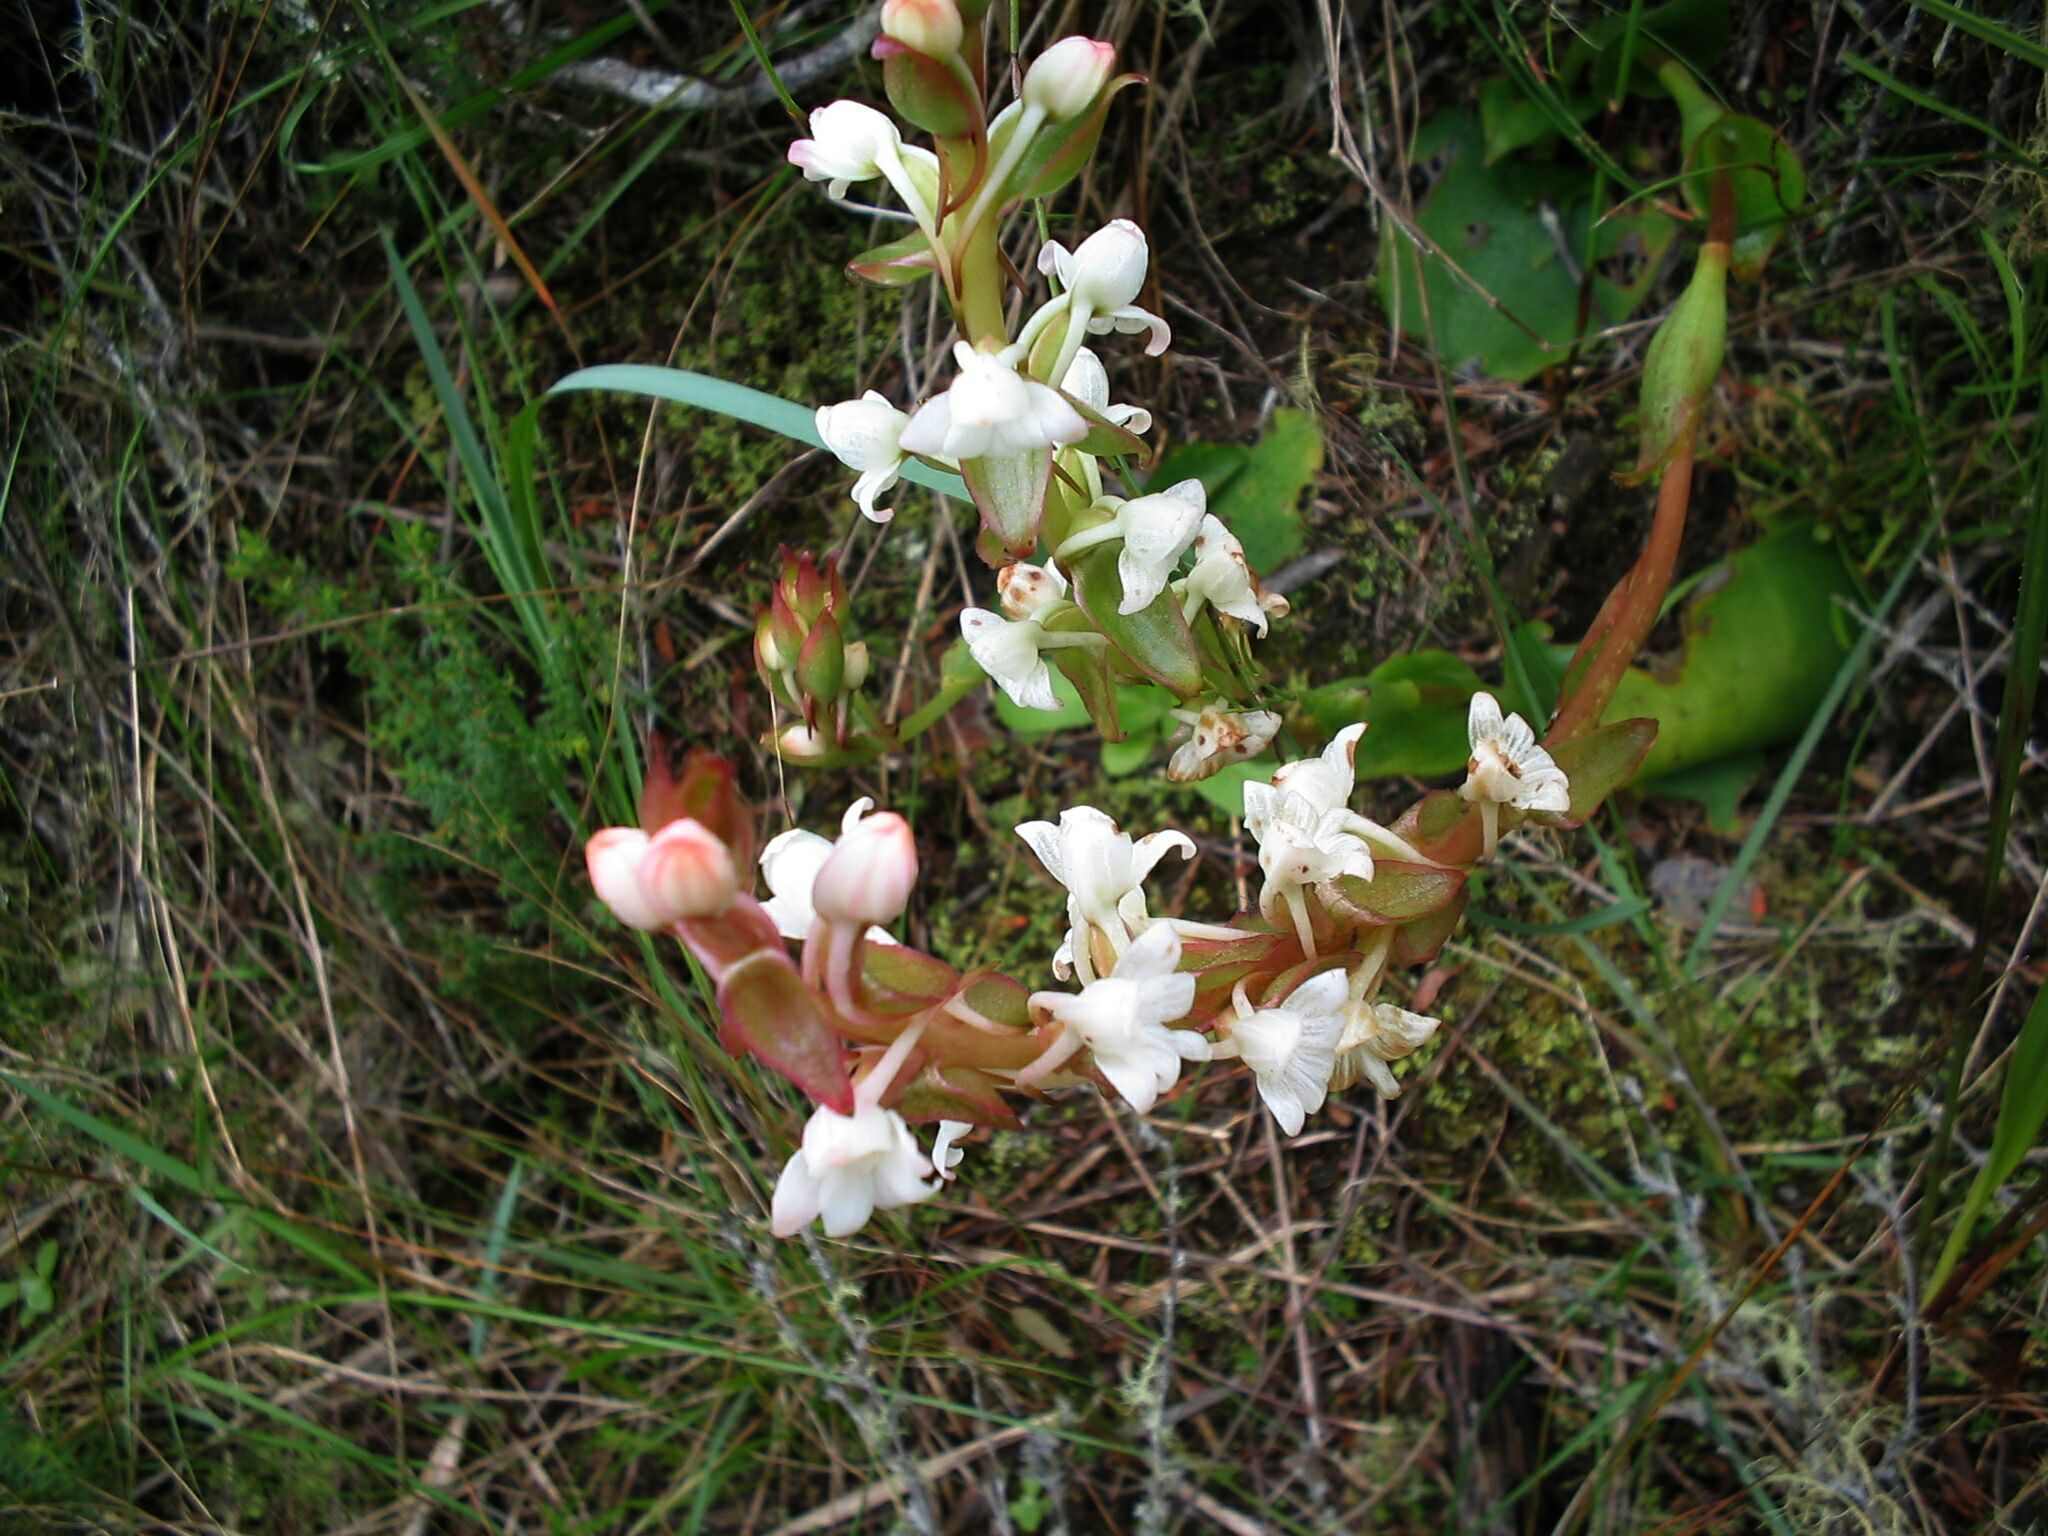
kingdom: Plantae
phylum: Tracheophyta
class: Liliopsida
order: Asparagales
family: Orchidaceae
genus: Satyrium
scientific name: Satyrium acuminatum
